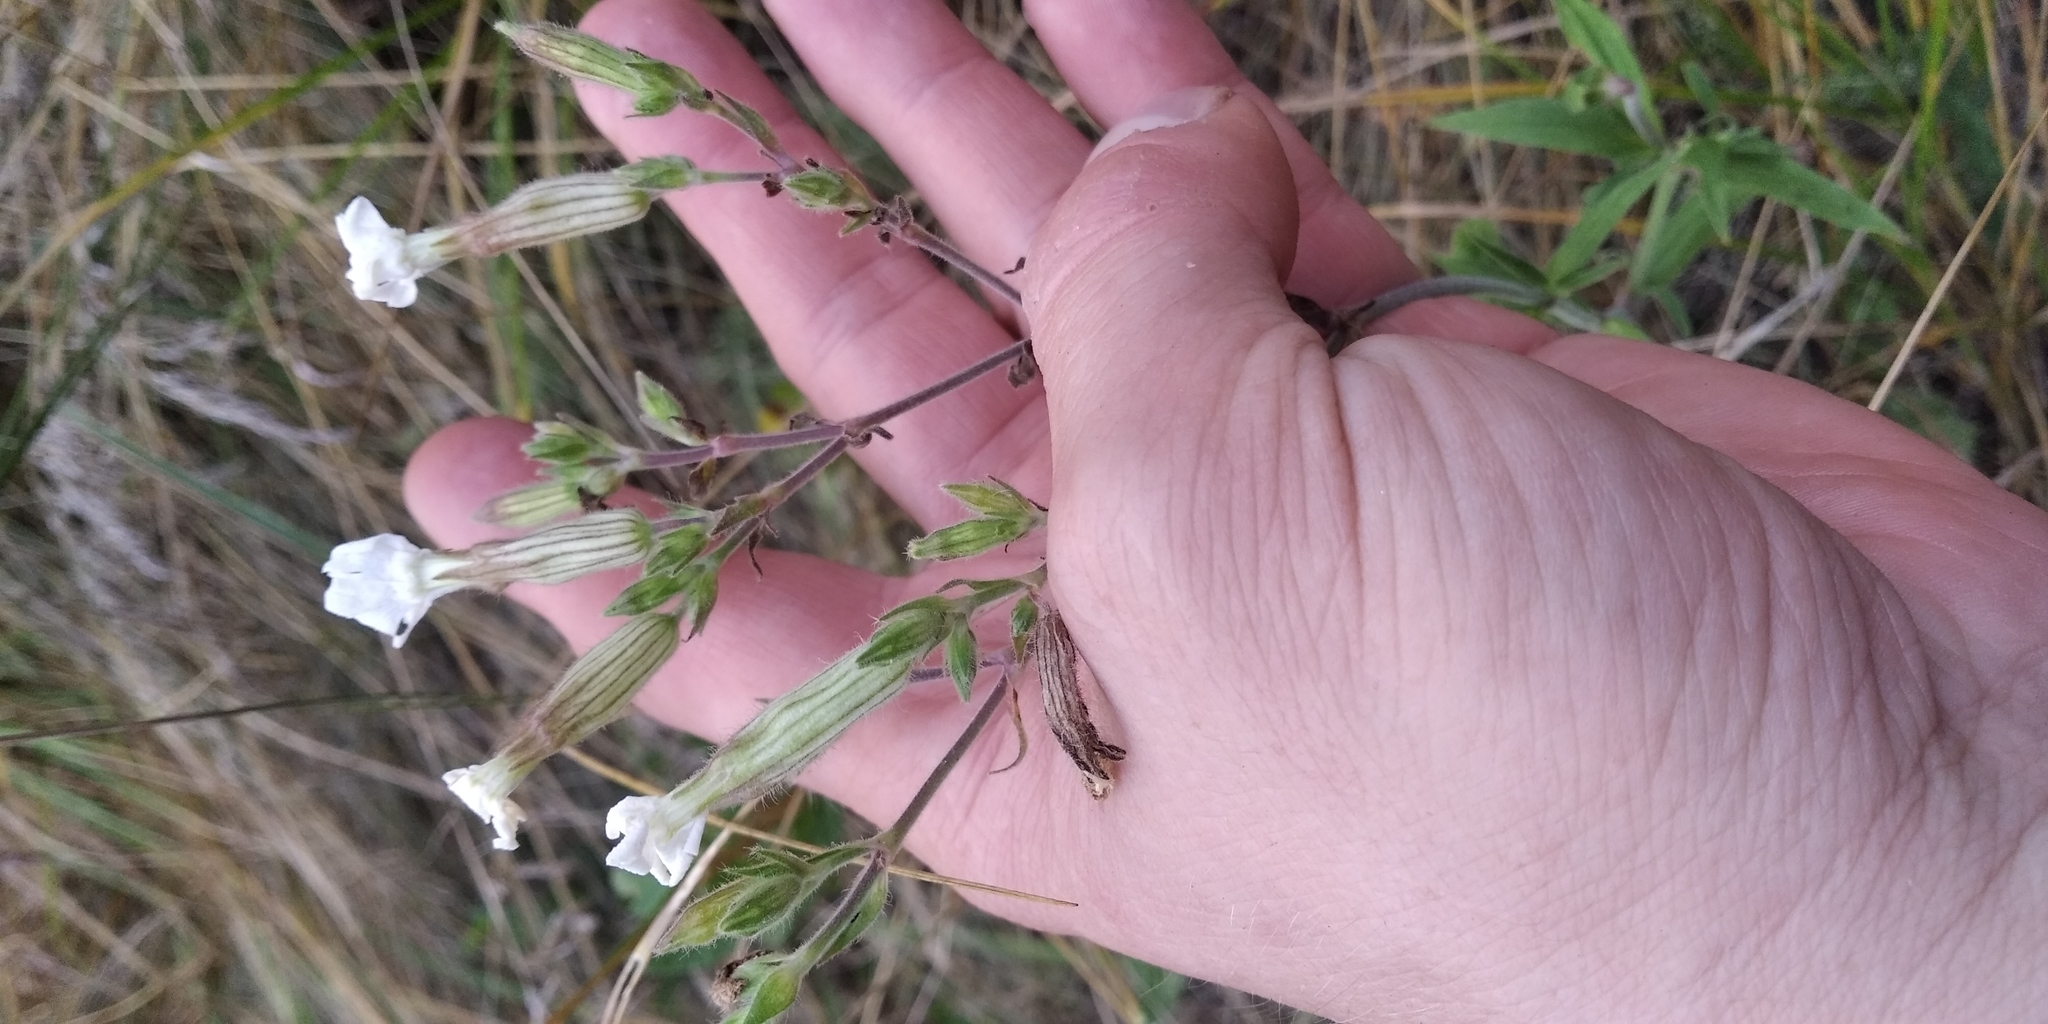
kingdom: Plantae
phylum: Tracheophyta
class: Magnoliopsida
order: Caryophyllales
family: Caryophyllaceae
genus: Silene
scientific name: Silene latifolia
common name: White campion
